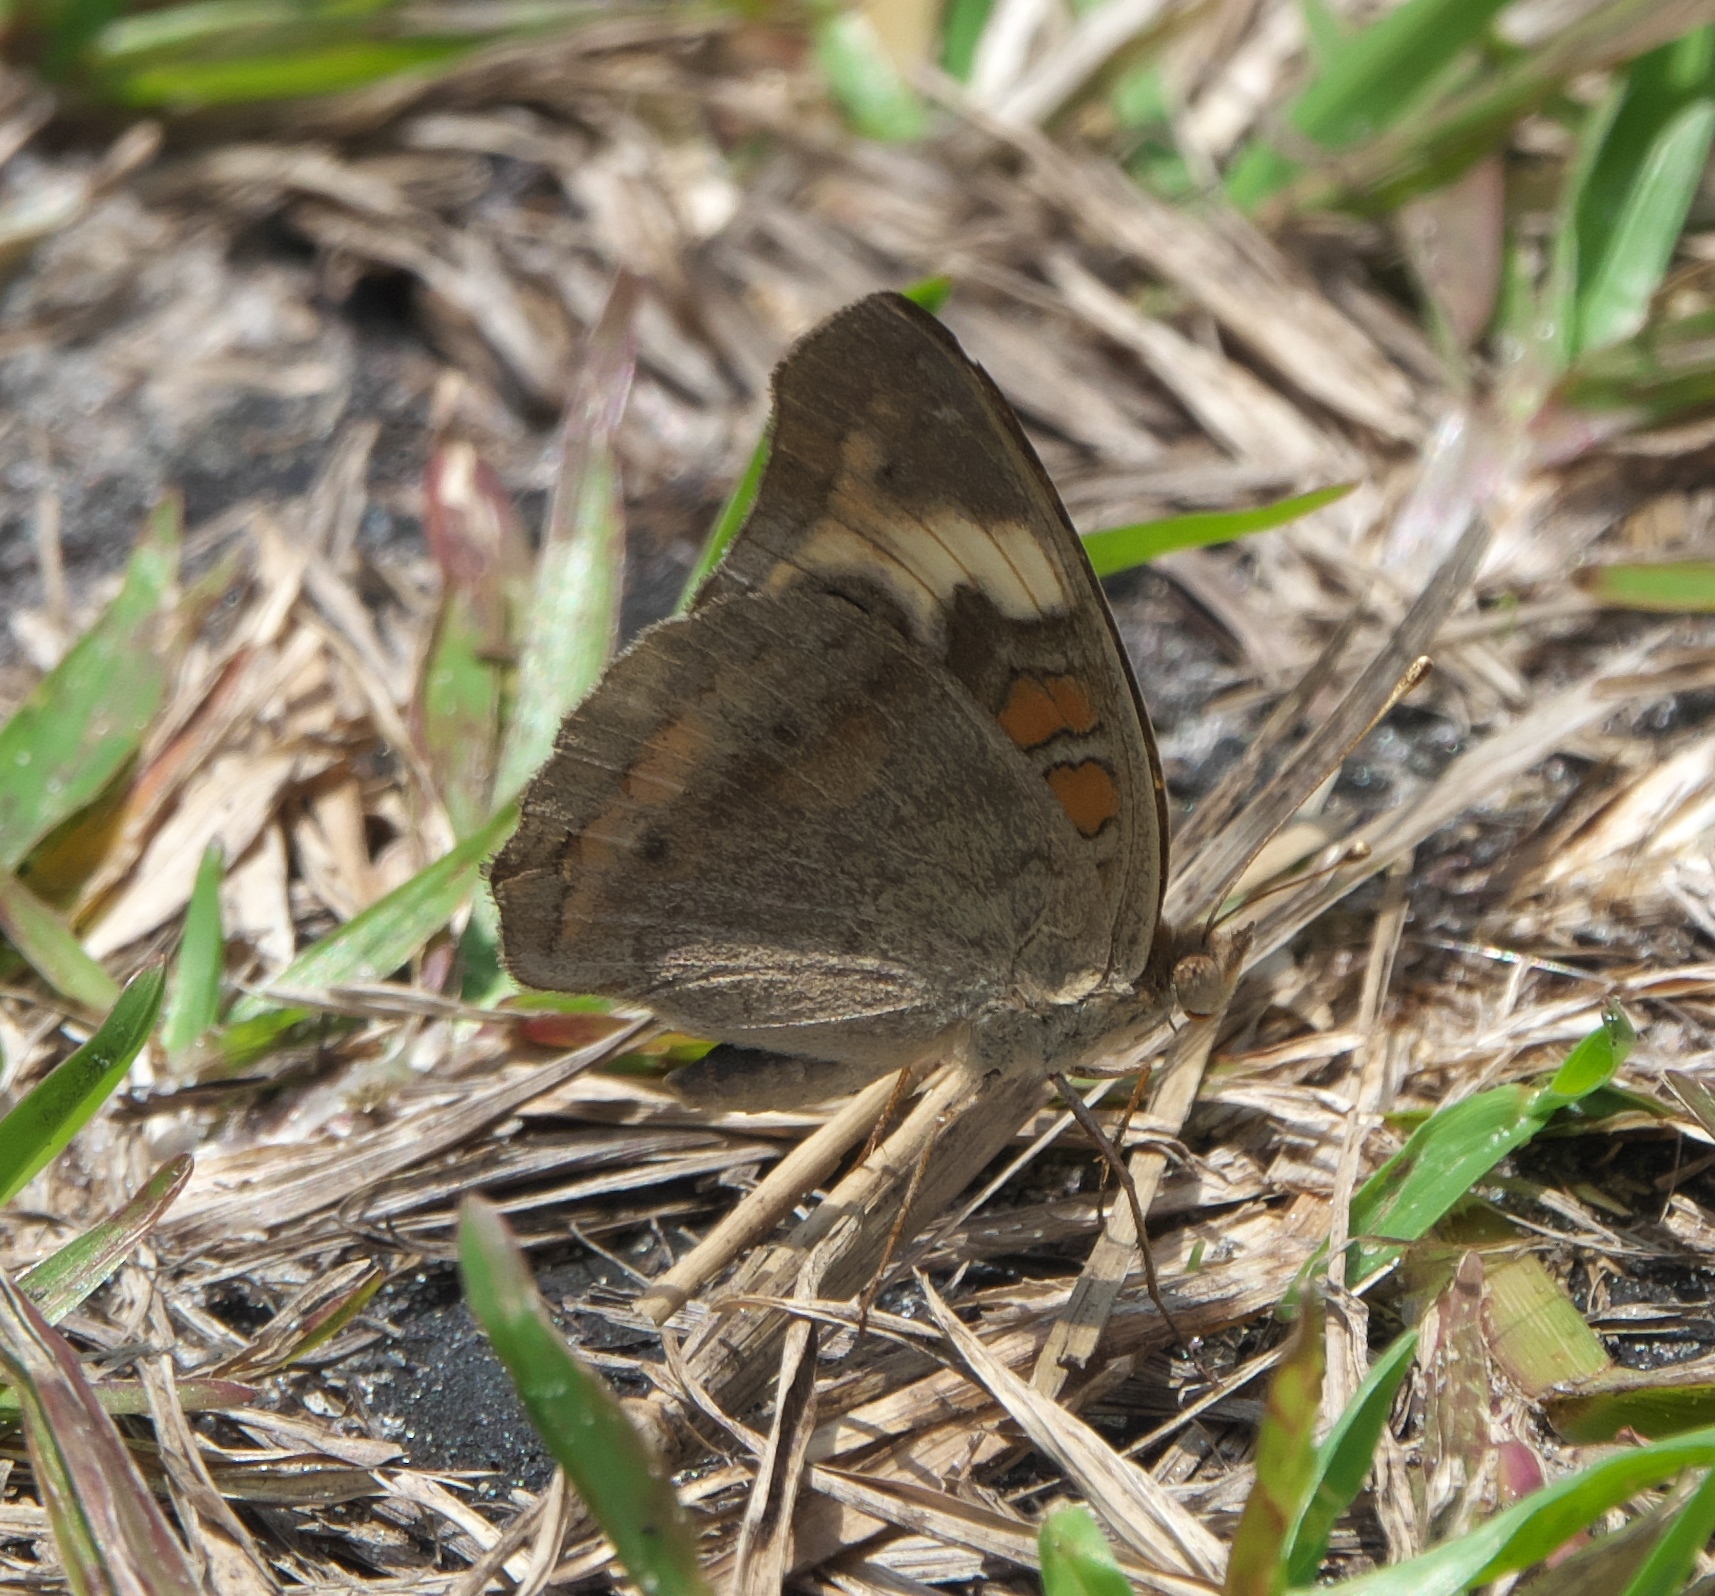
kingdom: Animalia
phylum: Arthropoda
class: Insecta
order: Lepidoptera
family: Nymphalidae
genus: Junonia
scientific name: Junonia coenia
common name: Common buckeye
